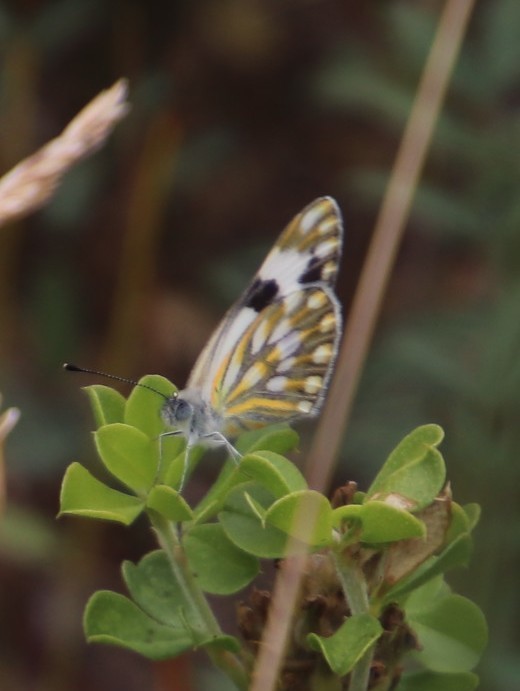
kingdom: Animalia
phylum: Arthropoda
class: Insecta
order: Lepidoptera
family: Pieridae
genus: Pontia
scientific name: Pontia helice
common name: Meadow white
